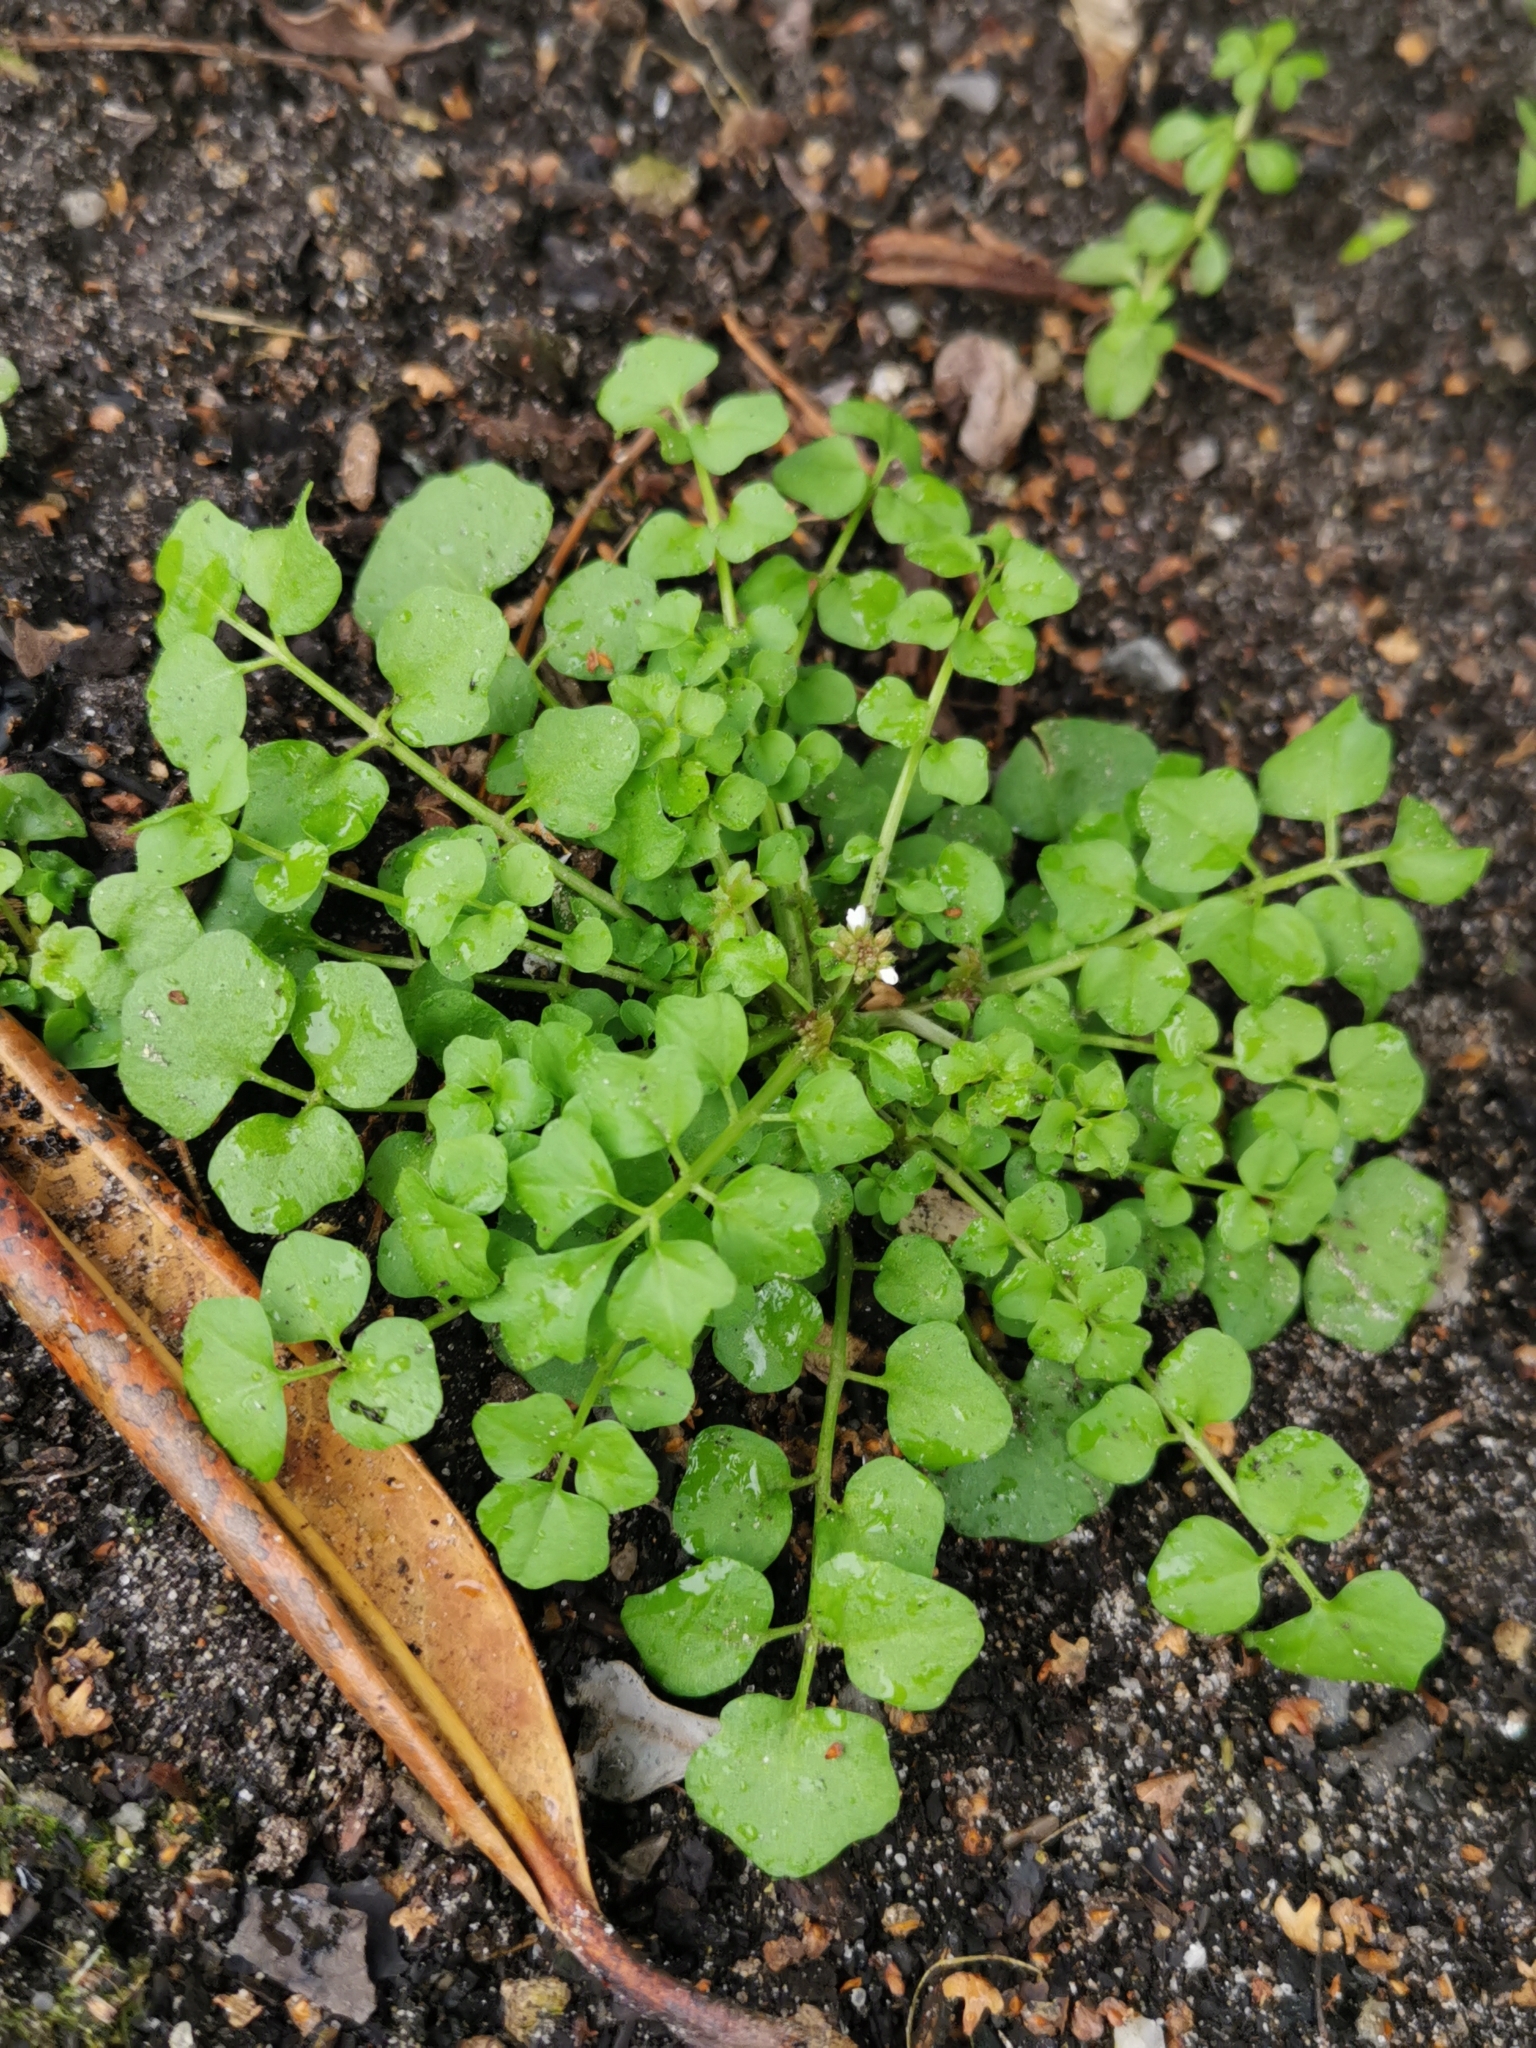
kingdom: Plantae
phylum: Tracheophyta
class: Magnoliopsida
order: Brassicales
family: Brassicaceae
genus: Cardamine
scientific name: Cardamine hirsuta
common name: Hairy bittercress
